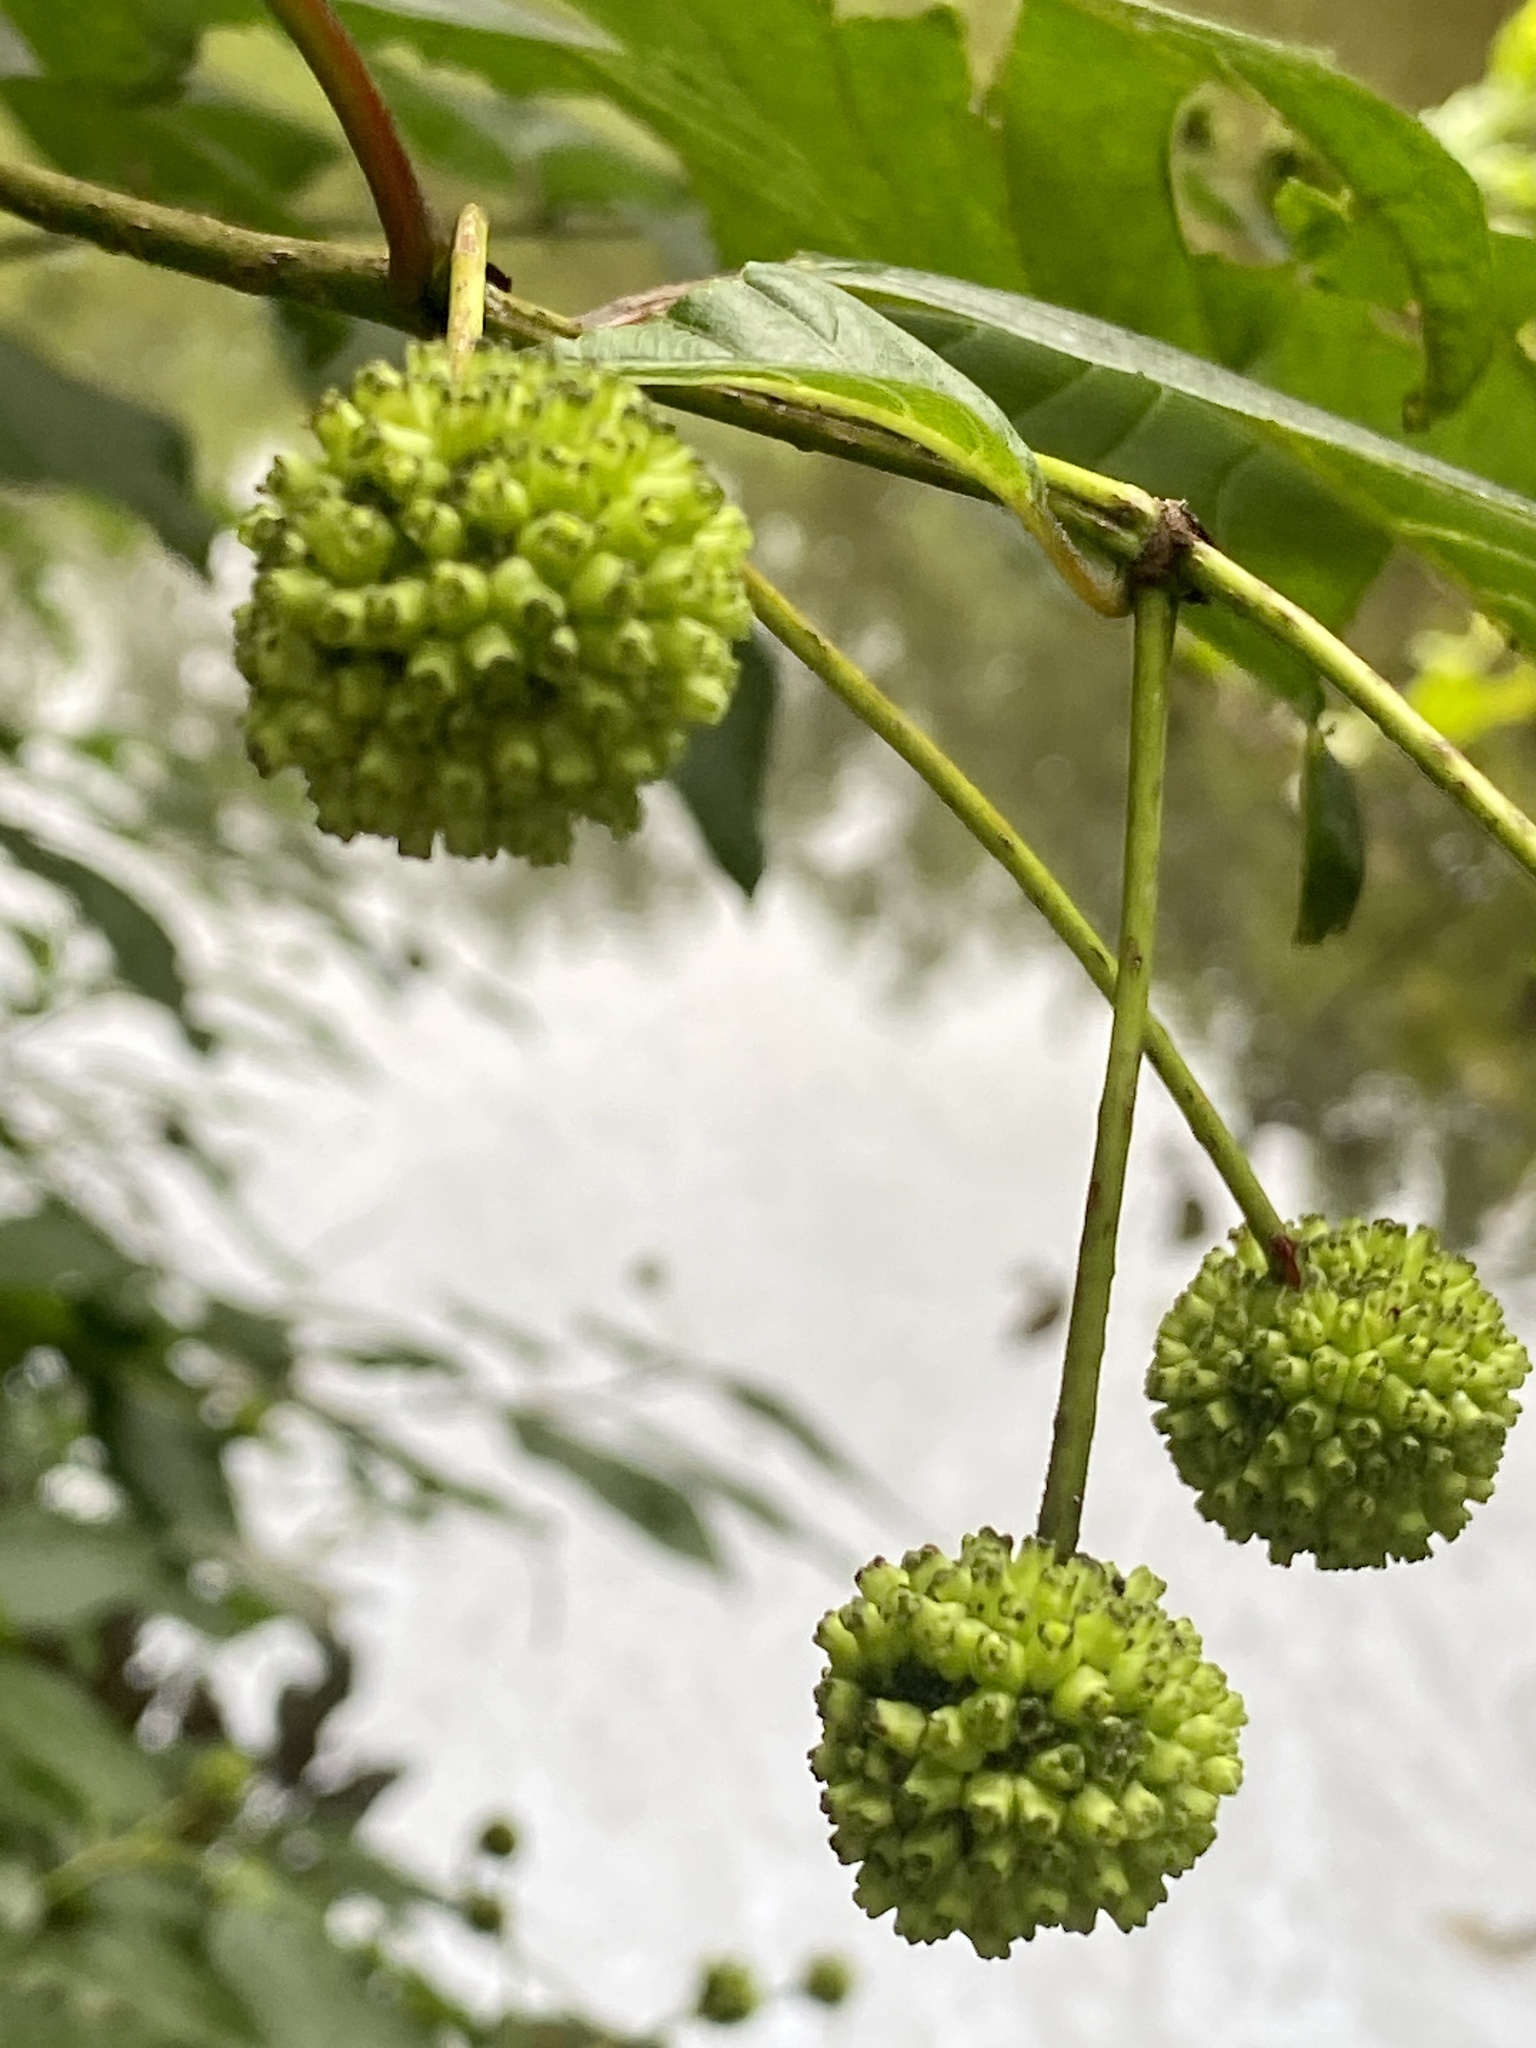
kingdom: Plantae
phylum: Tracheophyta
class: Magnoliopsida
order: Gentianales
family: Rubiaceae
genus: Cephalanthus
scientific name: Cephalanthus occidentalis
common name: Button-willow
